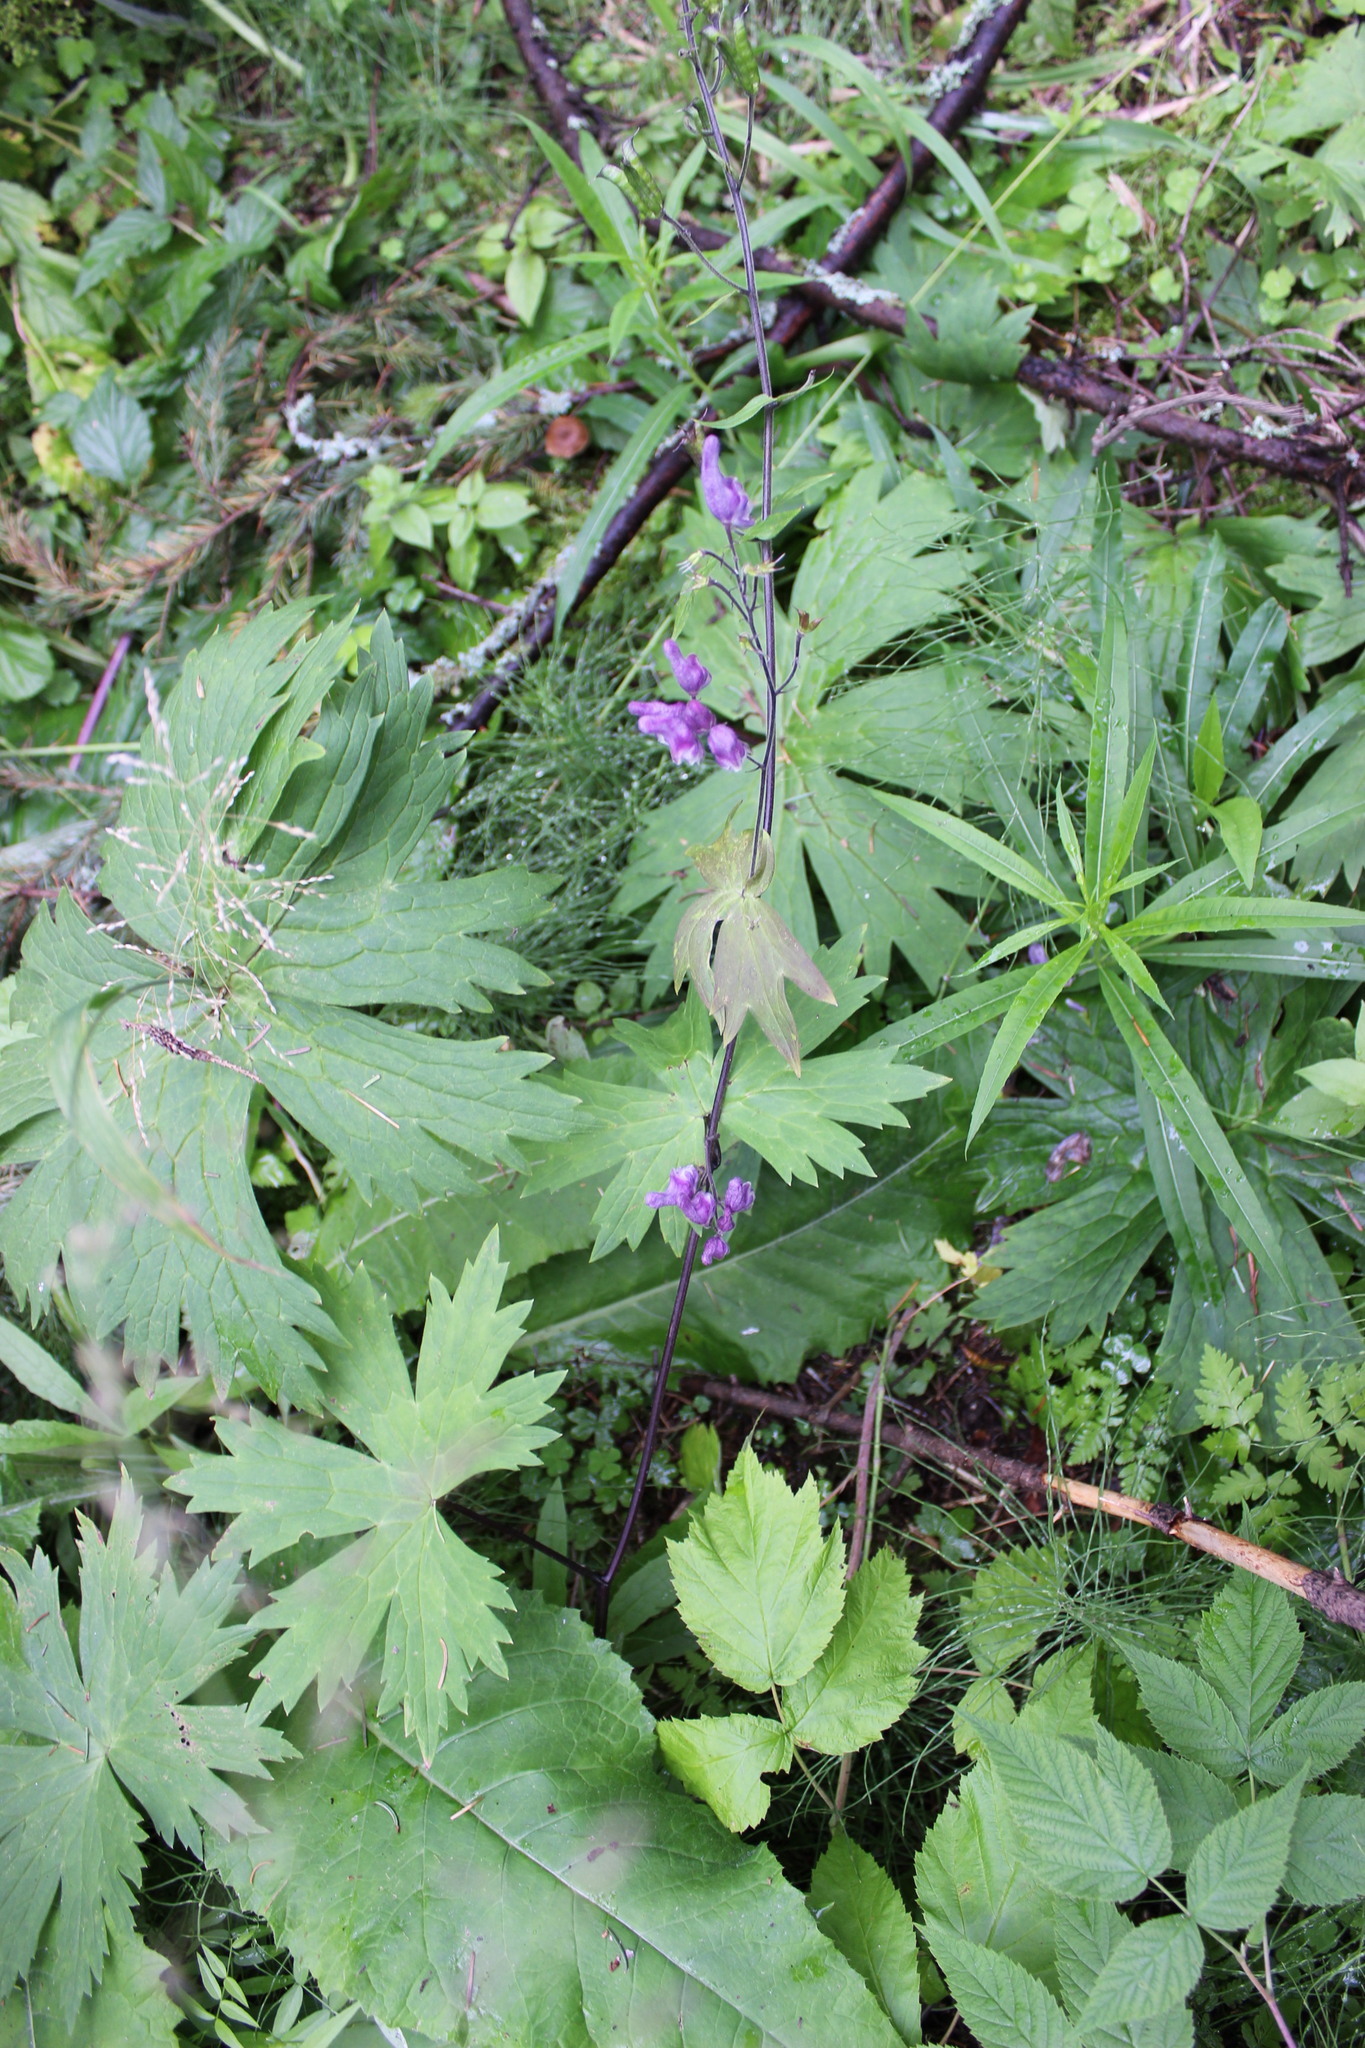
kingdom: Plantae
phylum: Tracheophyta
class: Magnoliopsida
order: Ranunculales
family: Ranunculaceae
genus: Aconitum
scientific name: Aconitum septentrionale
